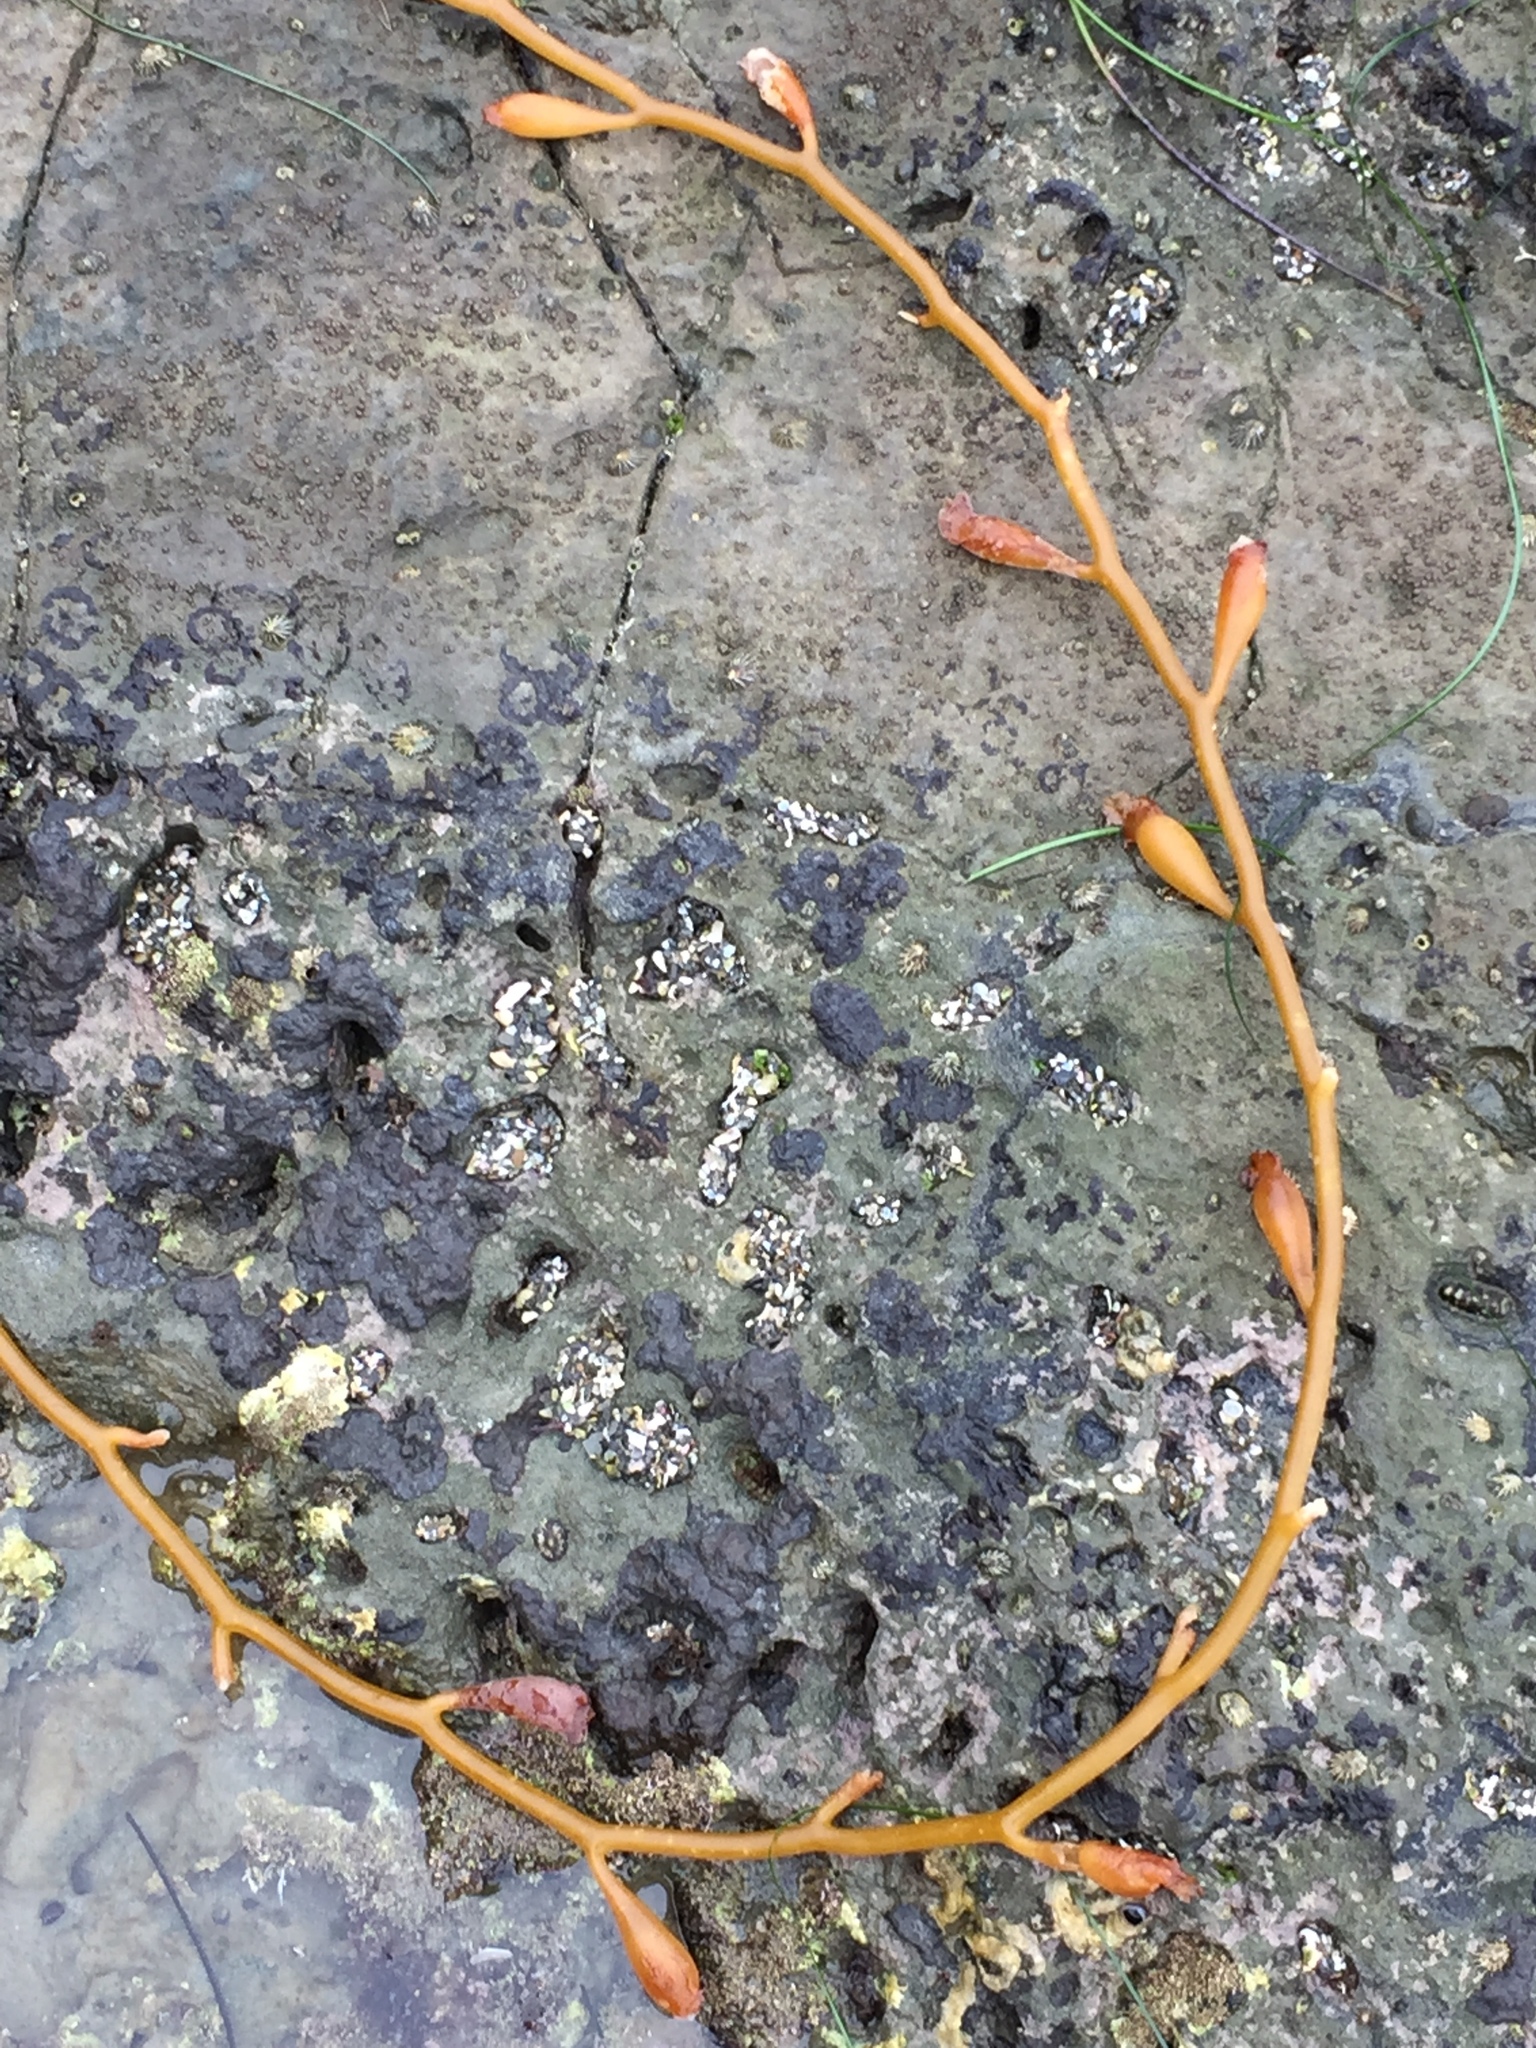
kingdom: Chromista
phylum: Ochrophyta
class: Phaeophyceae
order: Laminariales
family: Laminariaceae
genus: Macrocystis
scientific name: Macrocystis pyrifera
